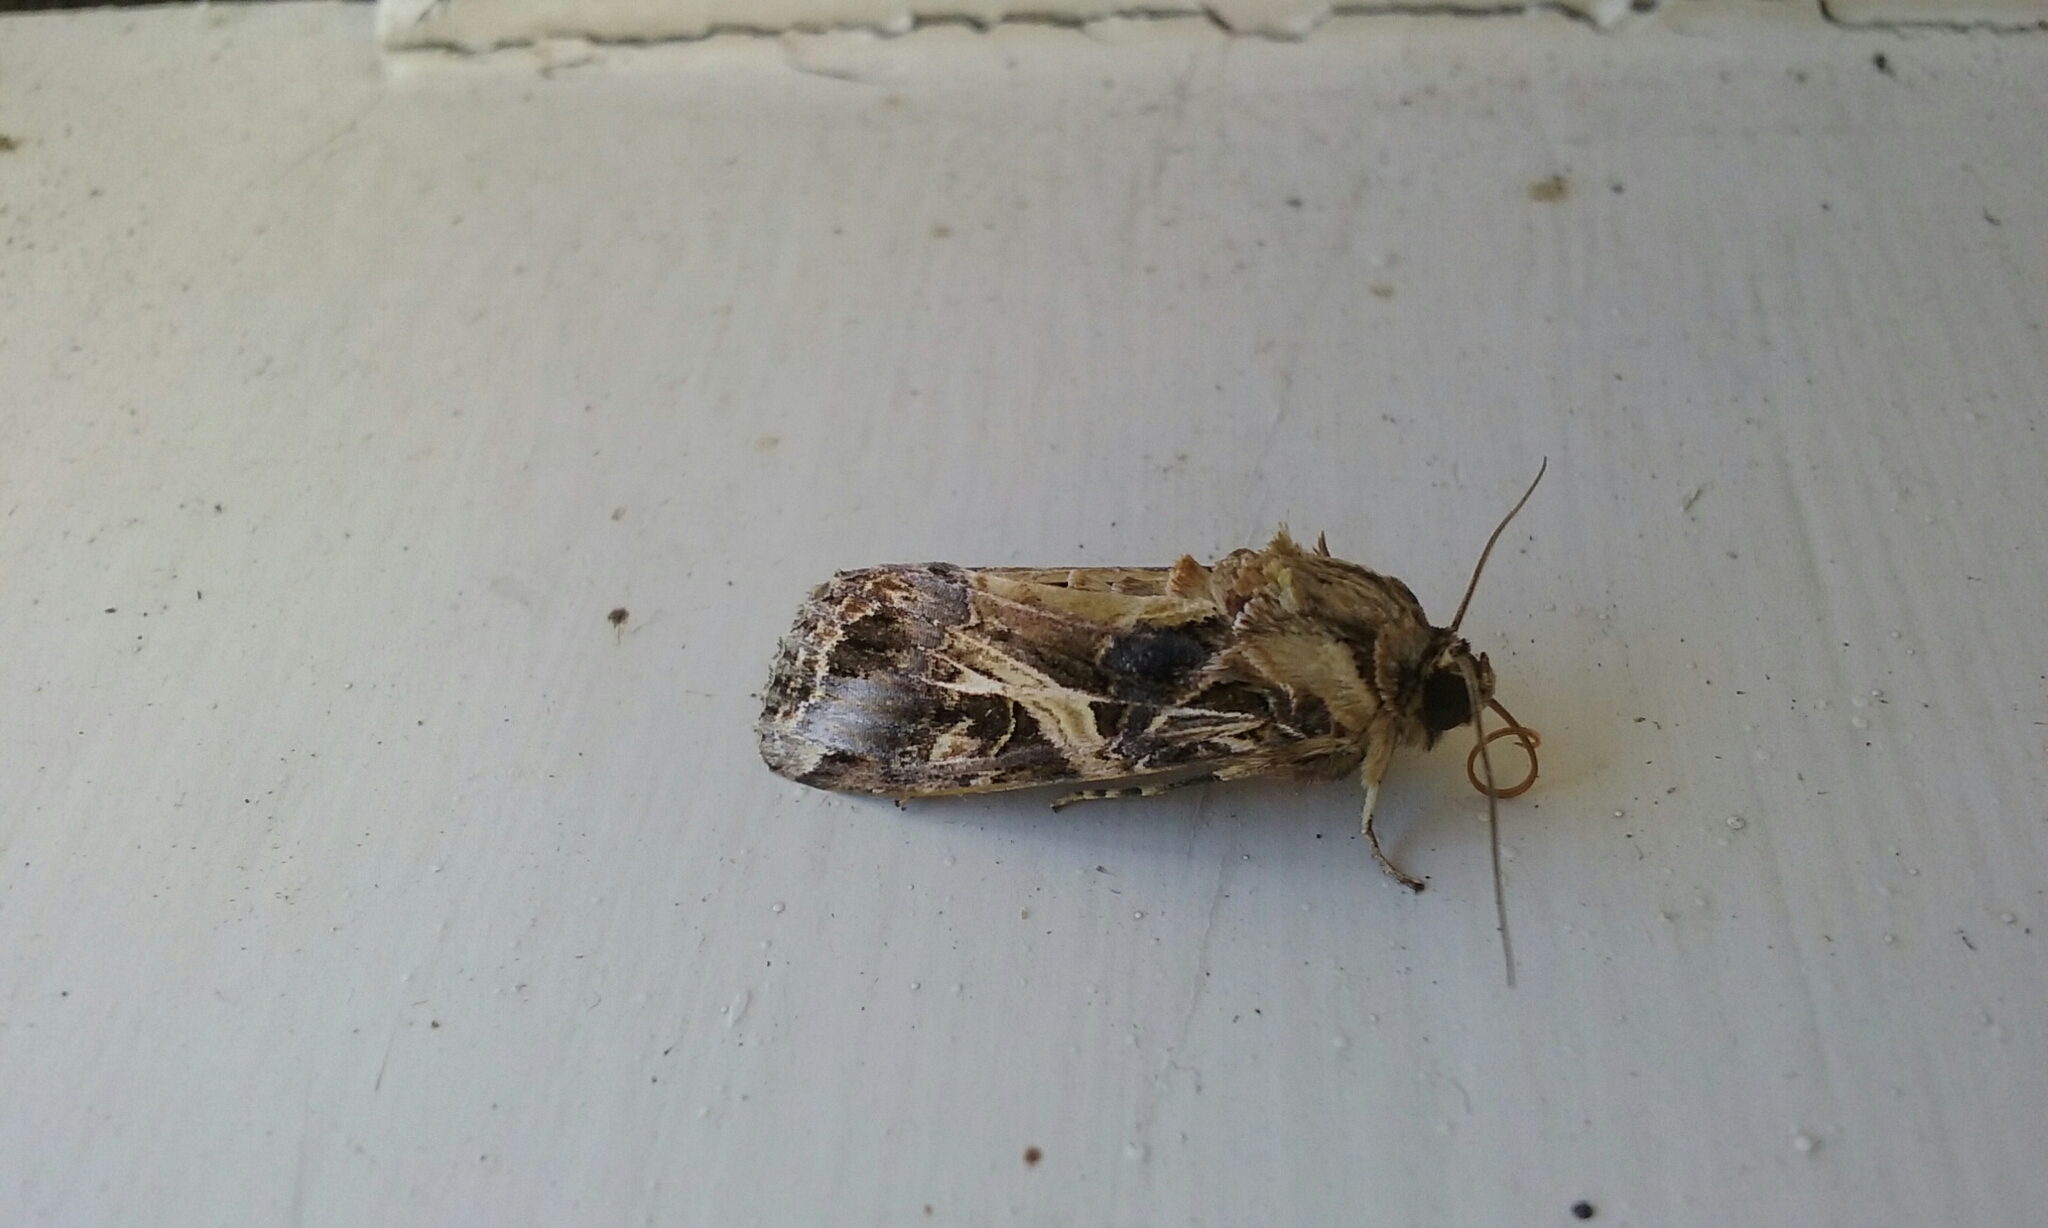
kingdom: Animalia
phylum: Arthropoda
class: Insecta
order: Lepidoptera
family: Noctuidae
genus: Spodoptera
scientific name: Spodoptera litura
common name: Asian cotton leafworm
